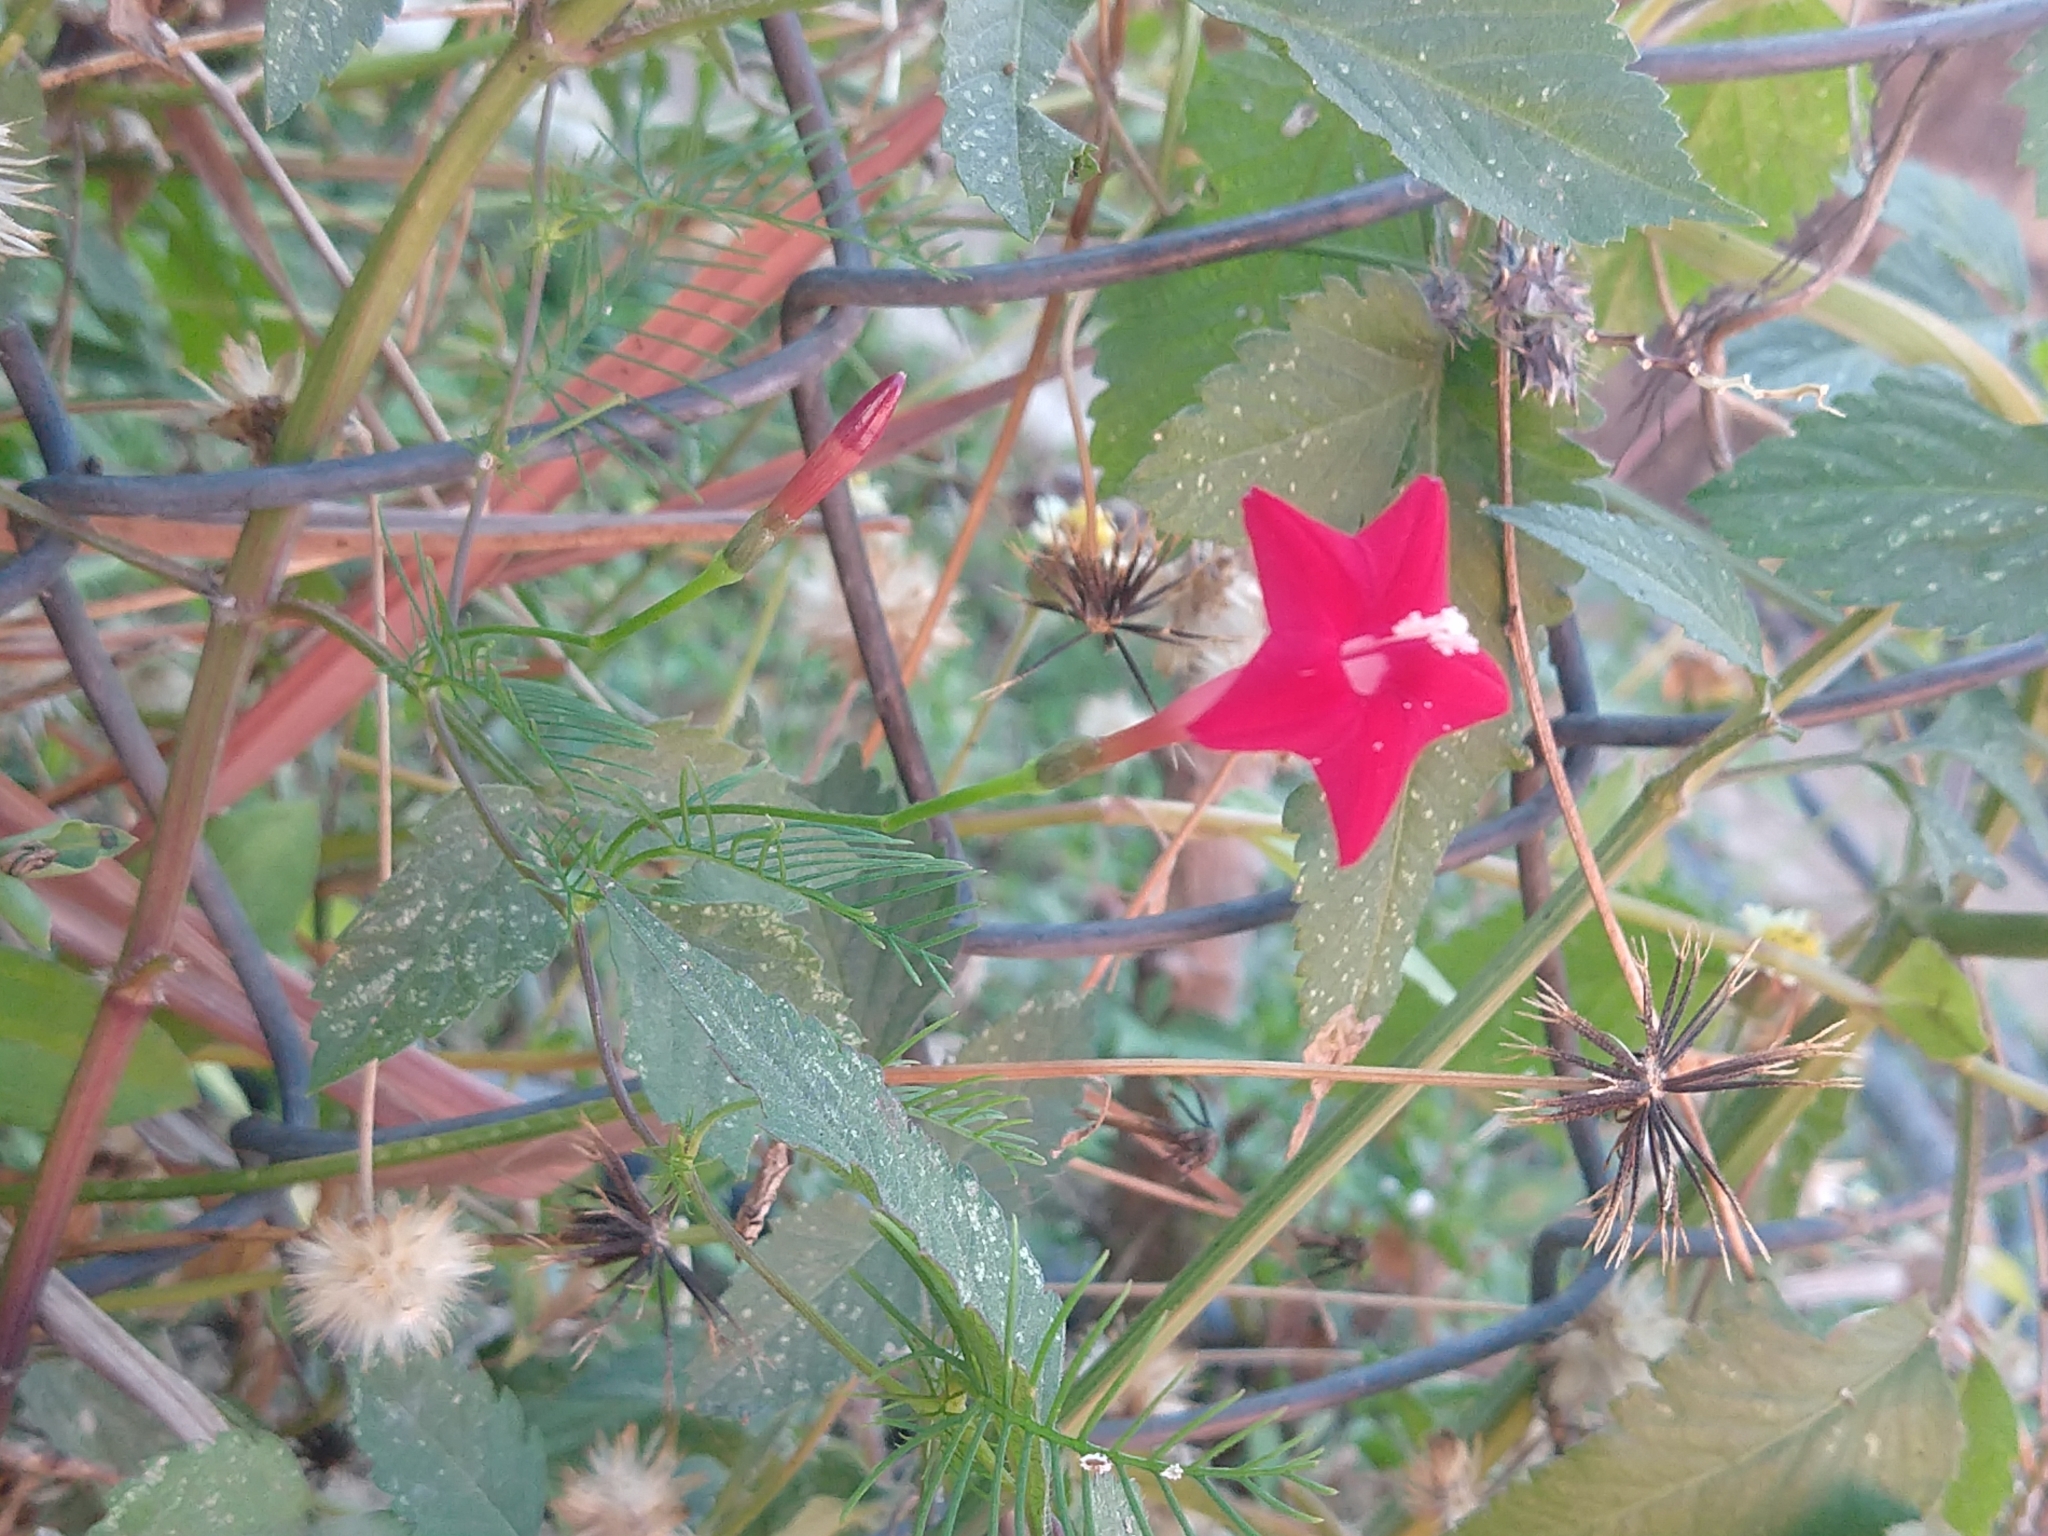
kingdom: Plantae
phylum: Tracheophyta
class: Magnoliopsida
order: Solanales
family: Convolvulaceae
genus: Ipomoea
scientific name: Ipomoea quamoclit
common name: Cypress vine
